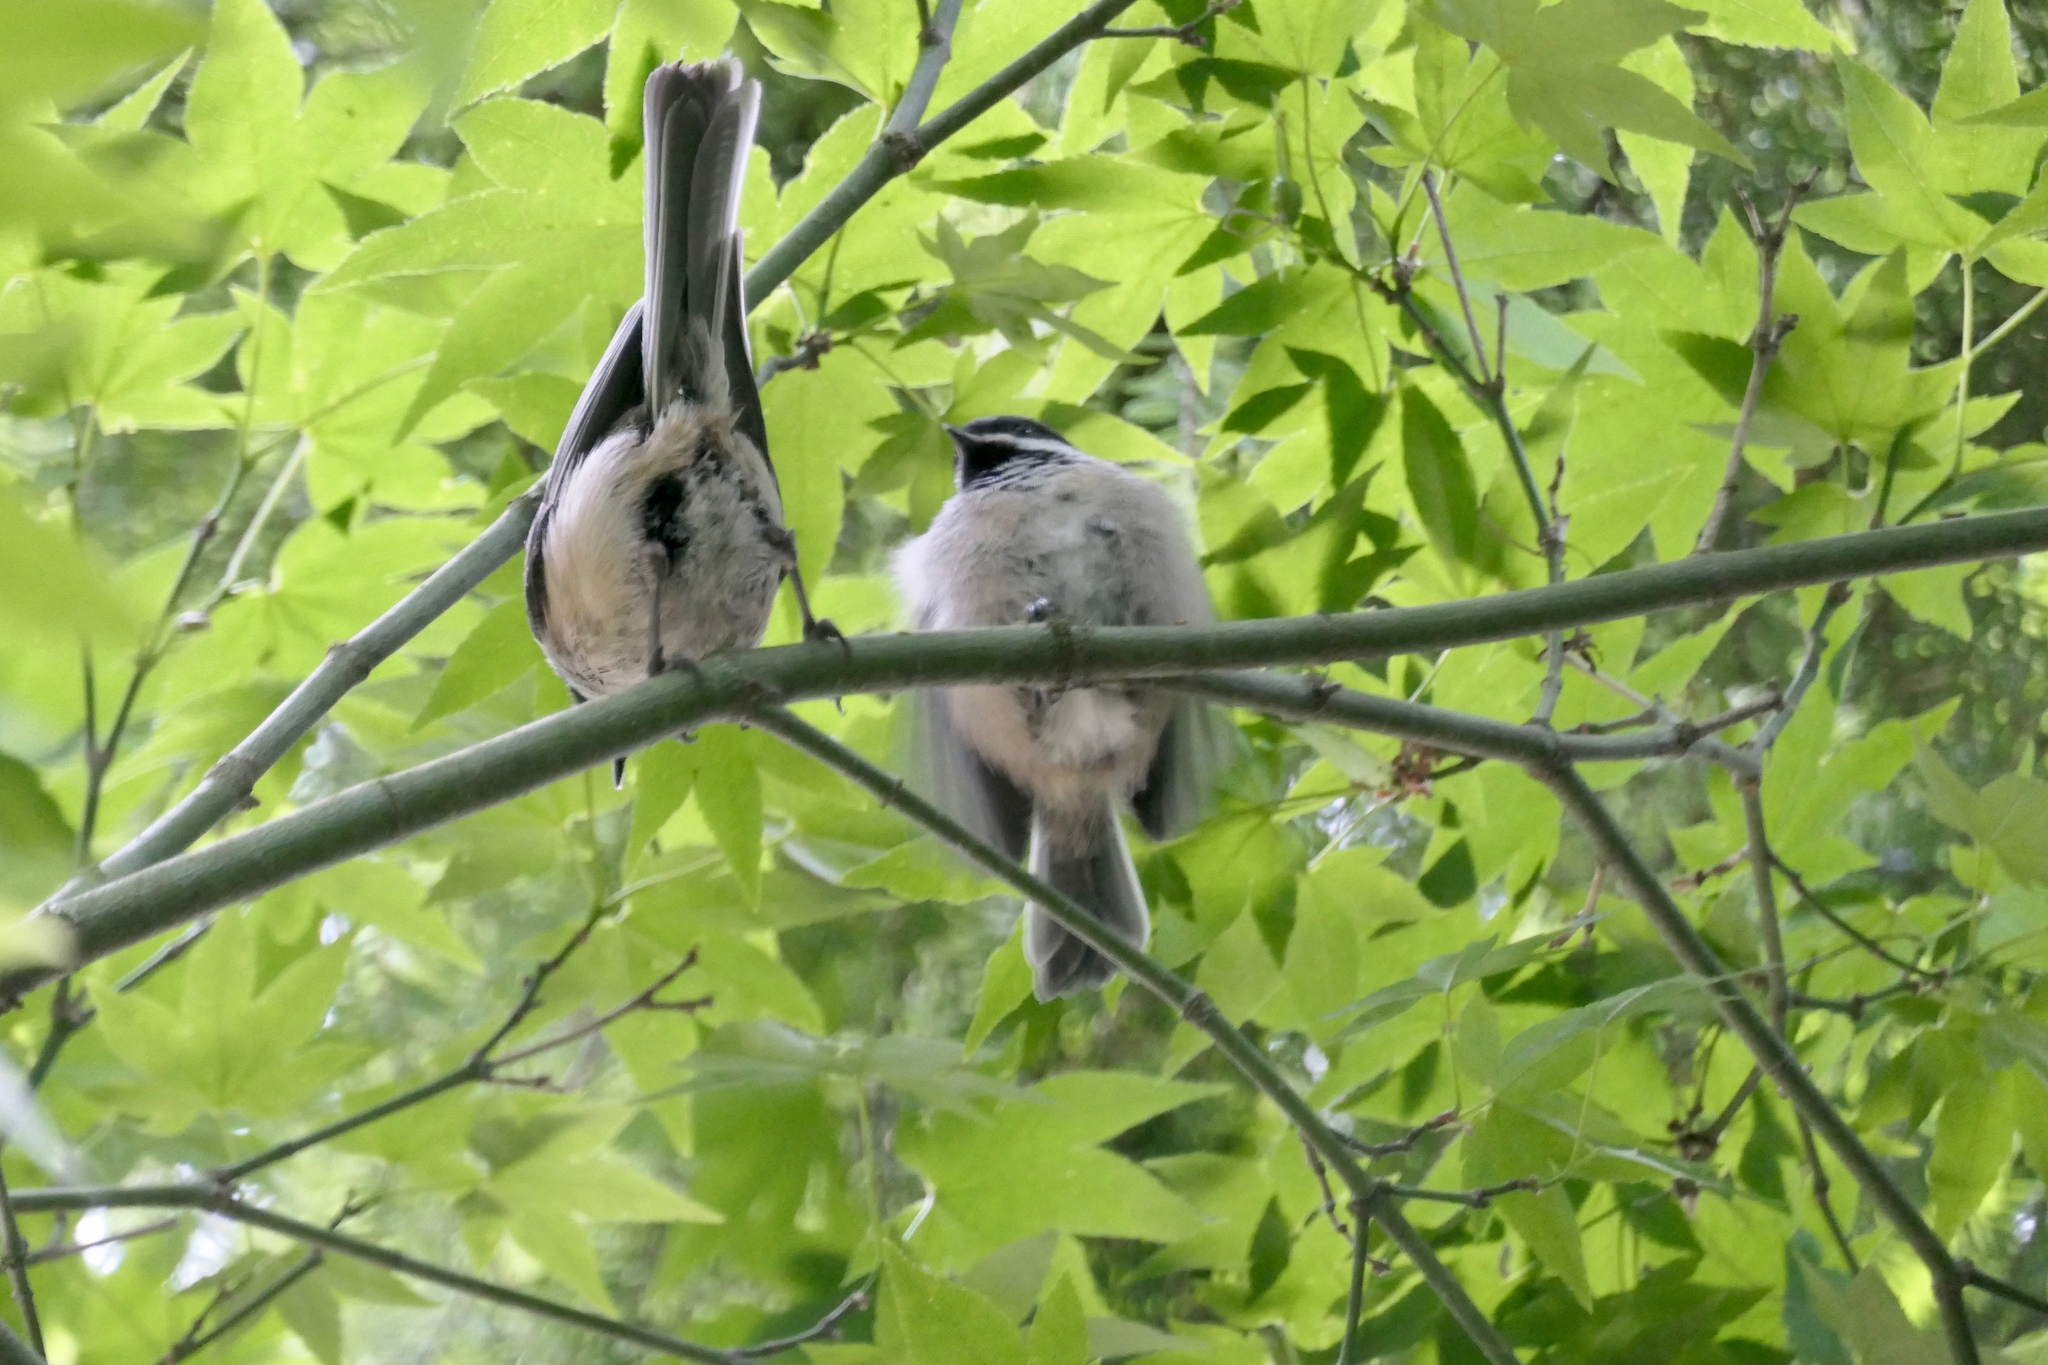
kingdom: Animalia
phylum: Chordata
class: Aves
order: Passeriformes
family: Paridae
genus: Poecile
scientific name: Poecile atricapillus
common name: Black-capped chickadee
